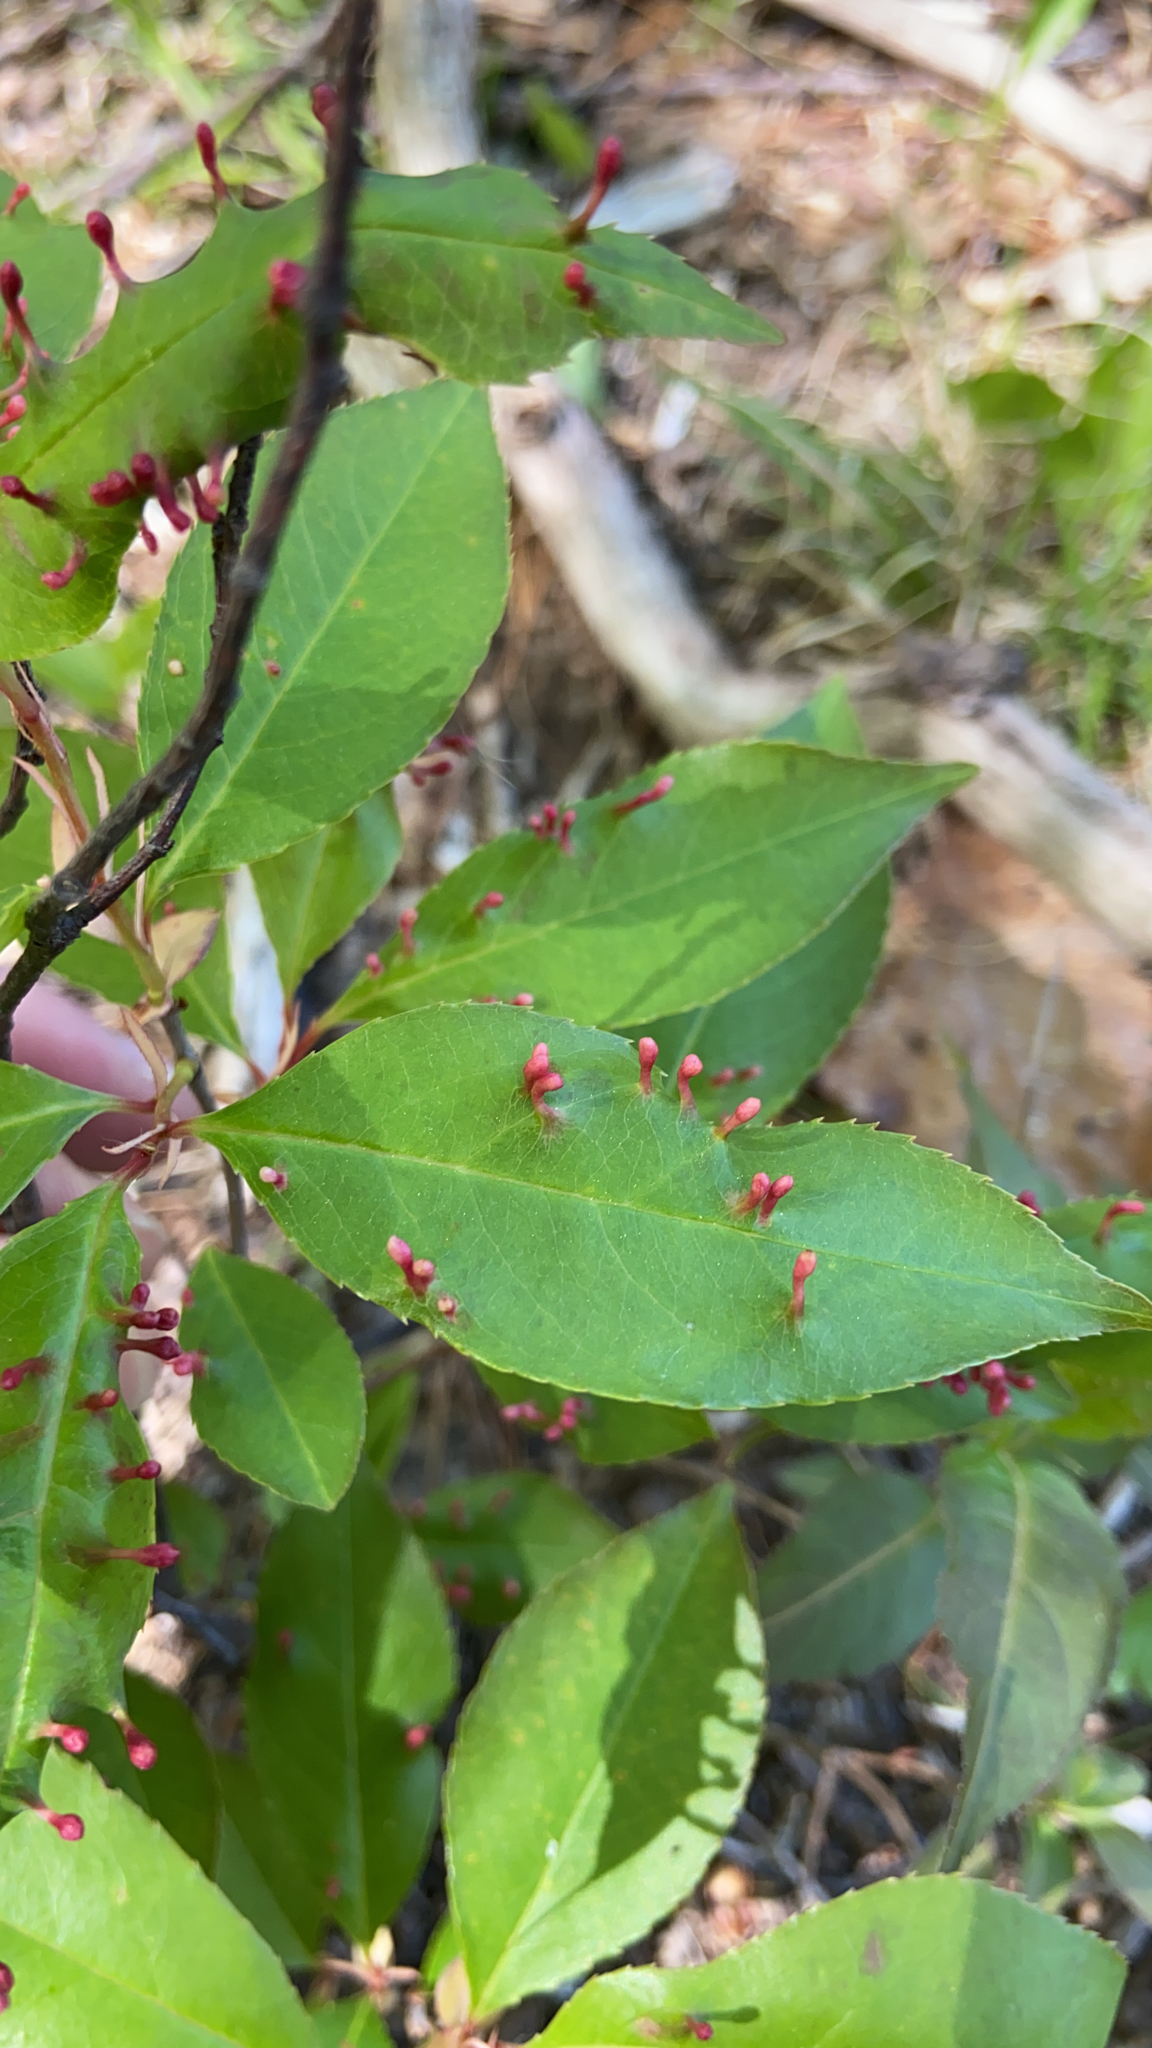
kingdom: Animalia
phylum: Arthropoda
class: Arachnida
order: Trombidiformes
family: Eriophyidae
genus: Eriophyes
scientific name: Eriophyes
